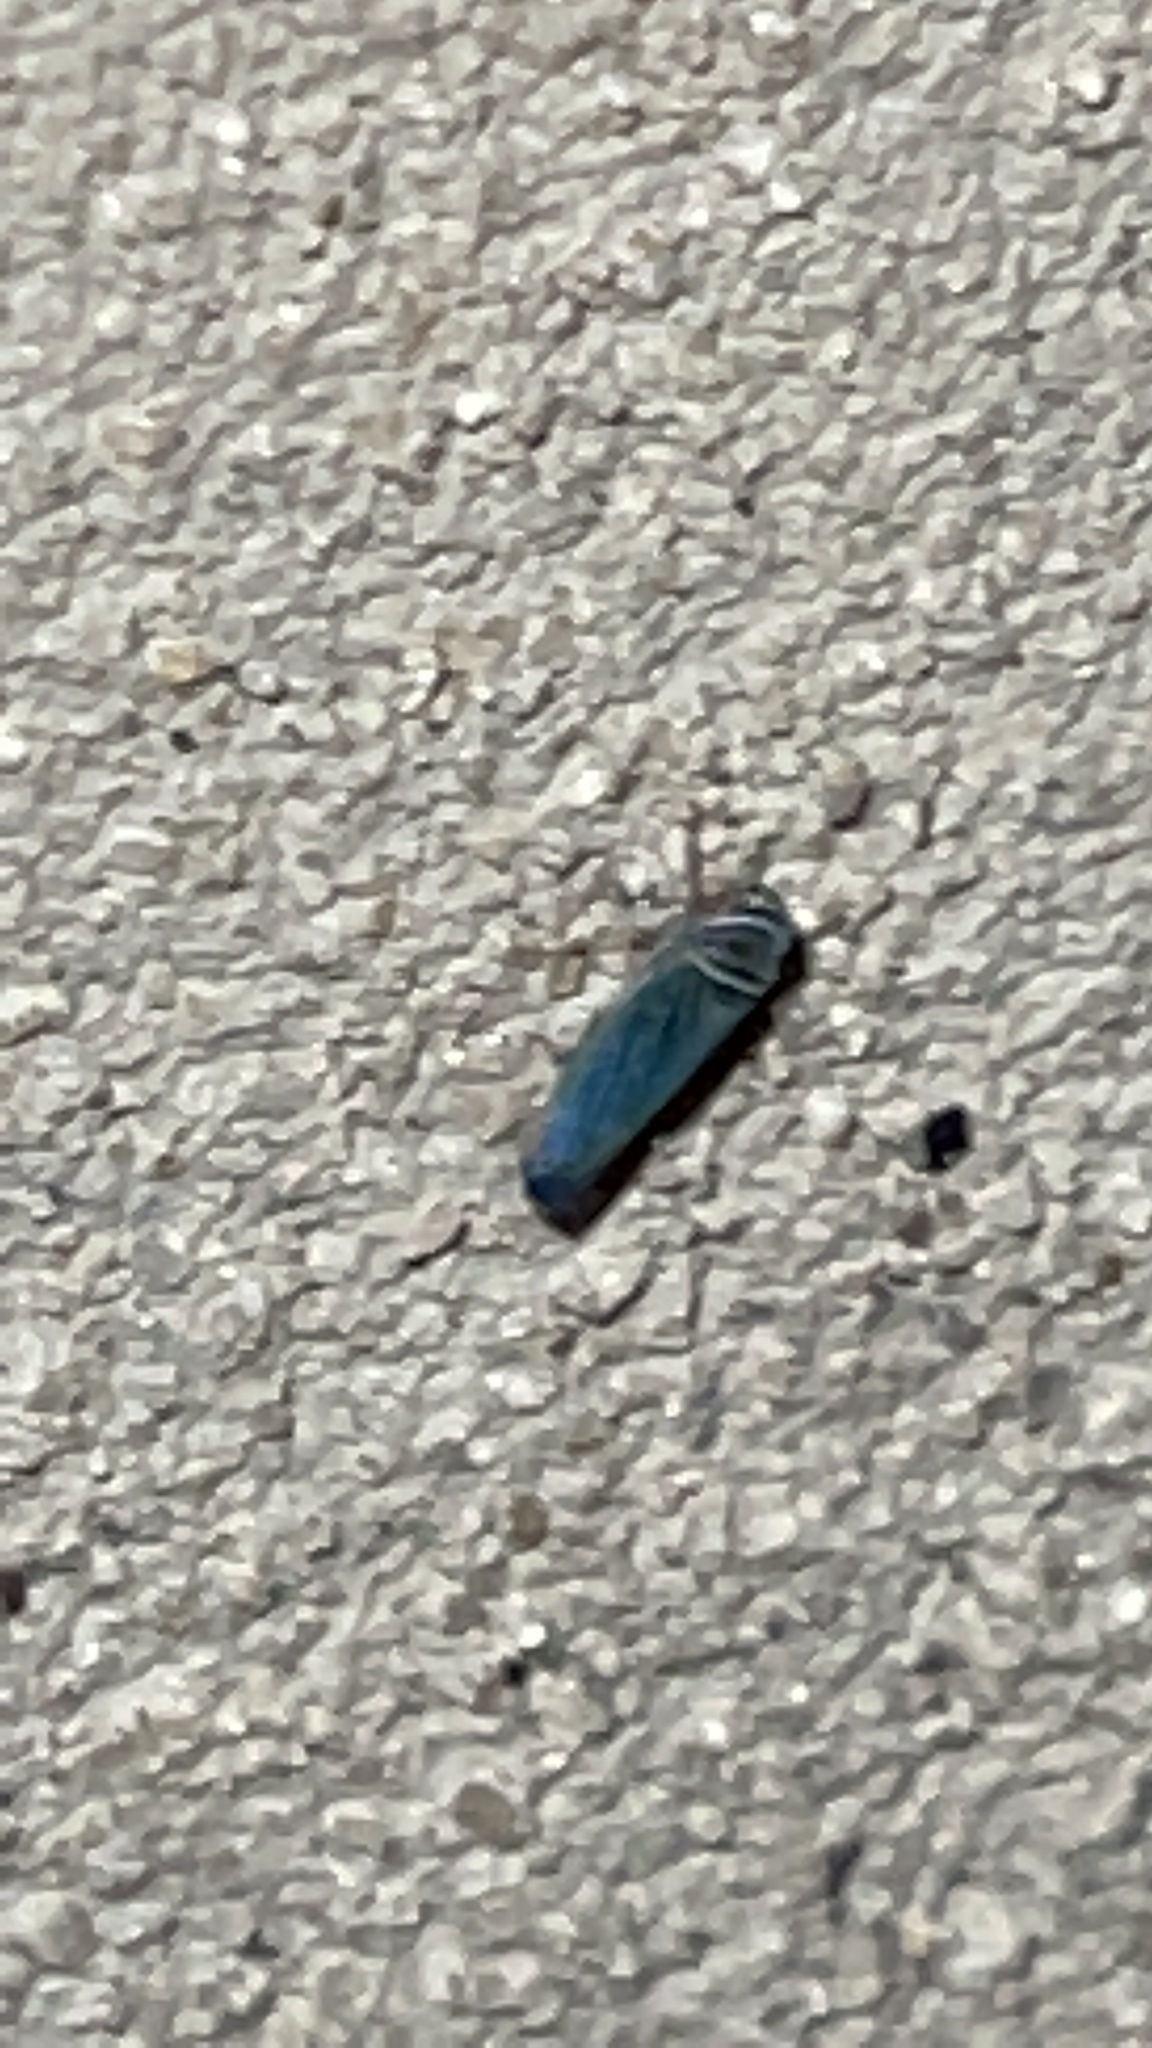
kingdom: Animalia
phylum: Arthropoda
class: Insecta
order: Hemiptera
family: Cicadellidae
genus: Tylozygus
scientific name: Tylozygus bifidus
